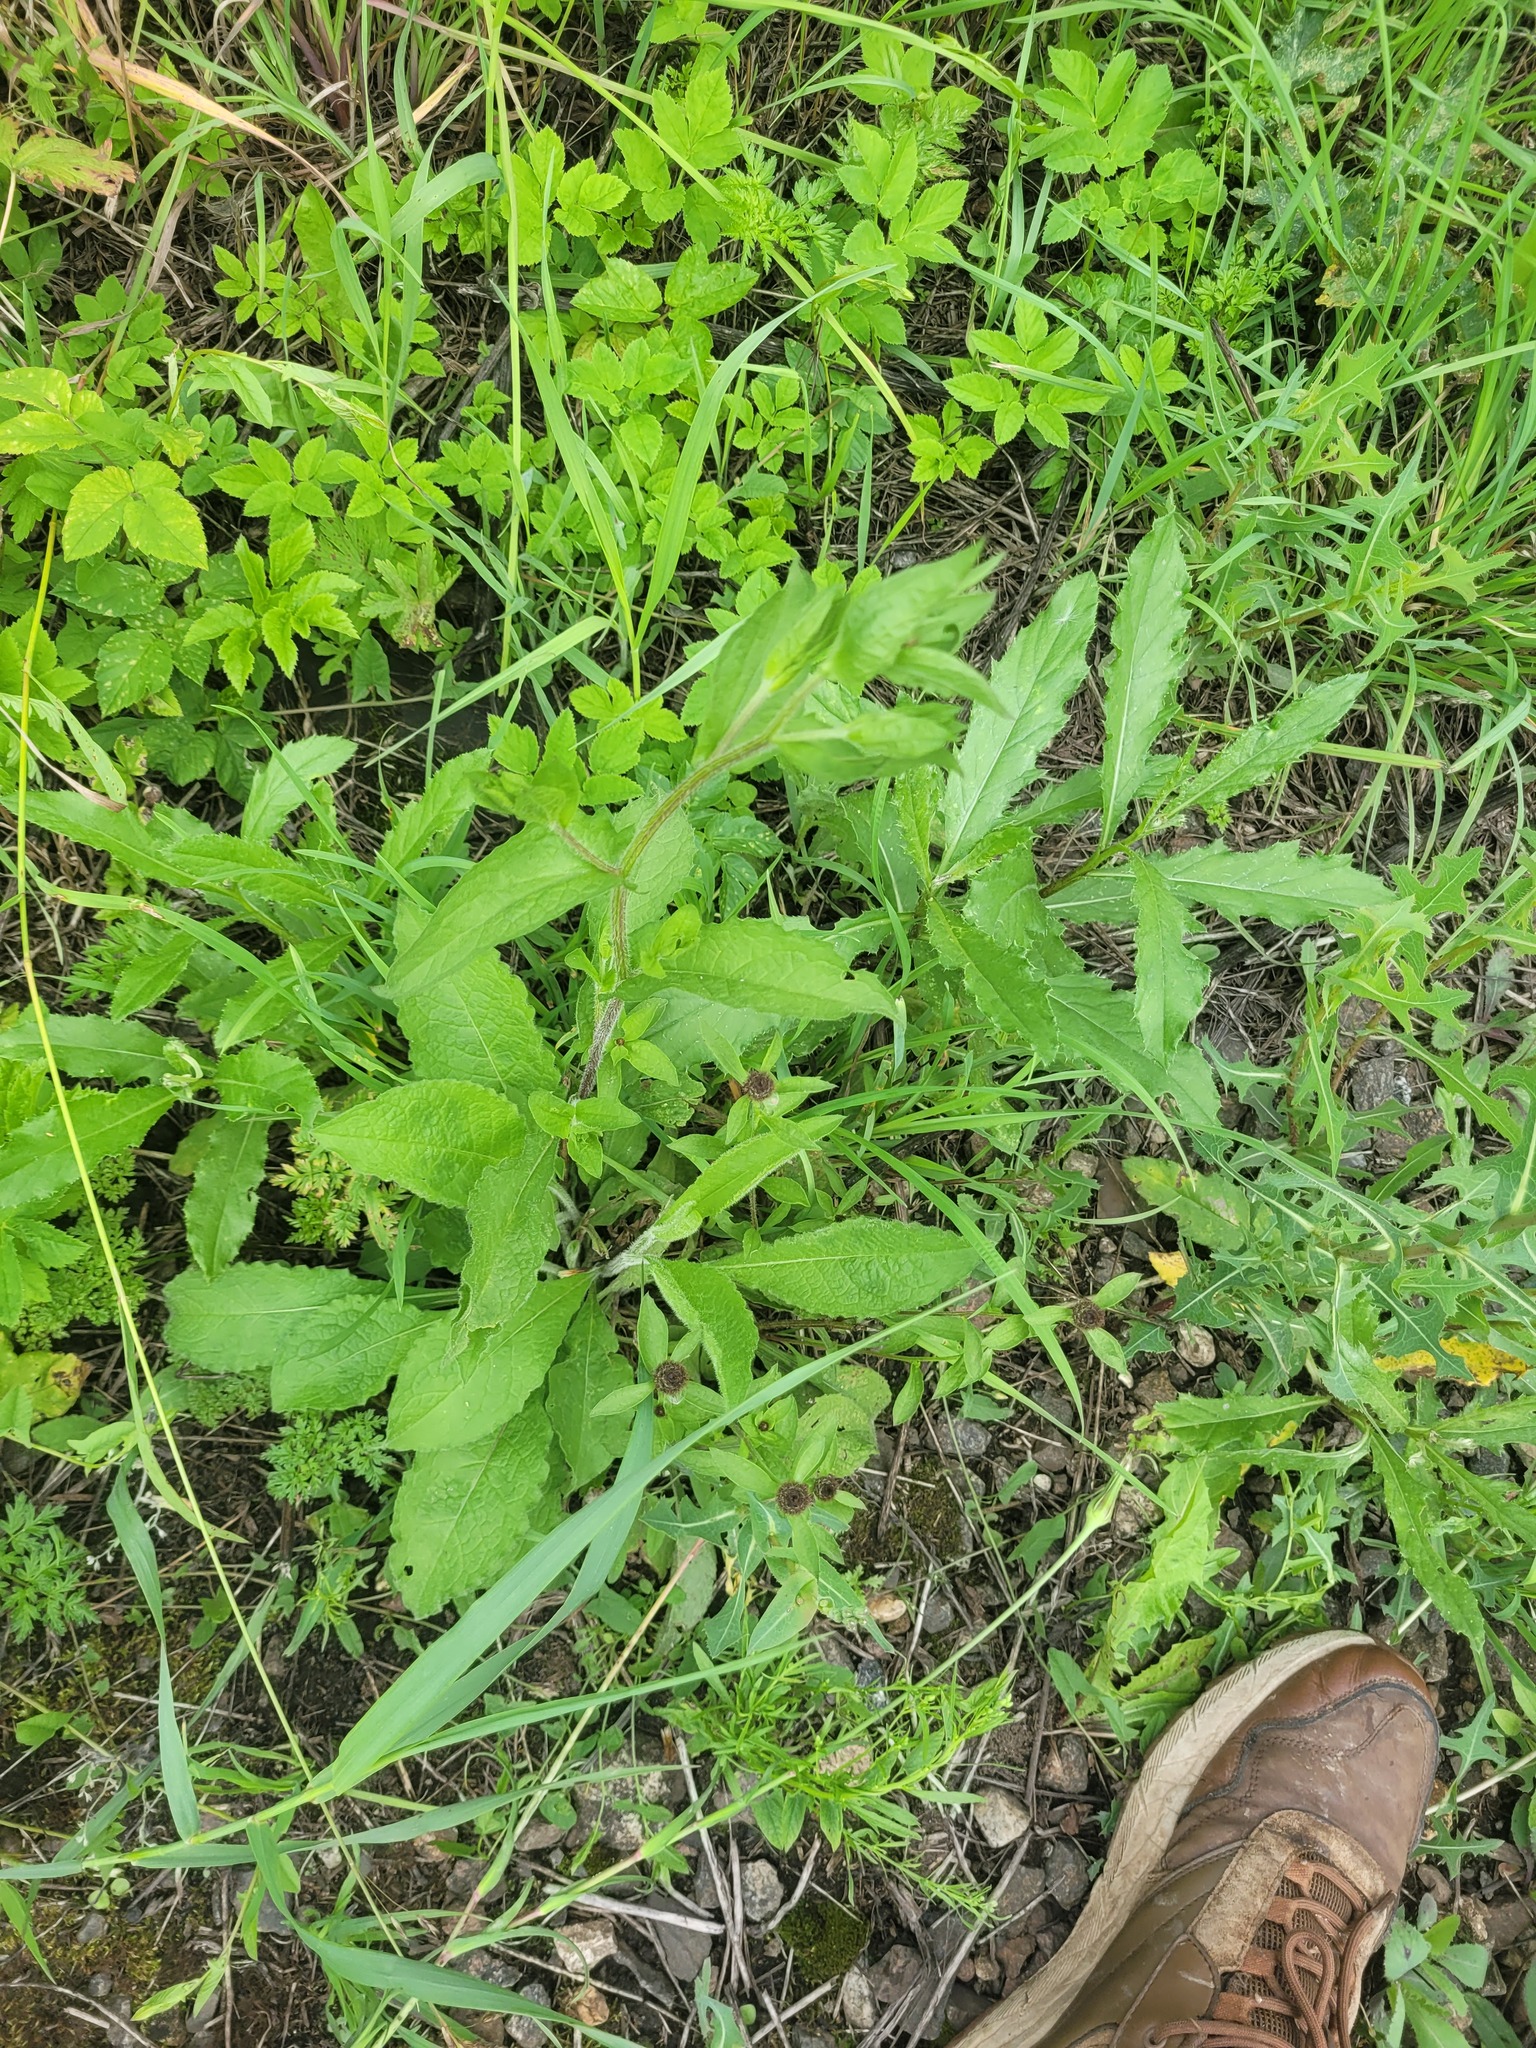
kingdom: Plantae
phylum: Tracheophyta
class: Magnoliopsida
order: Asterales
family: Asteraceae
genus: Centaurea
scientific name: Centaurea pseudophrygia
